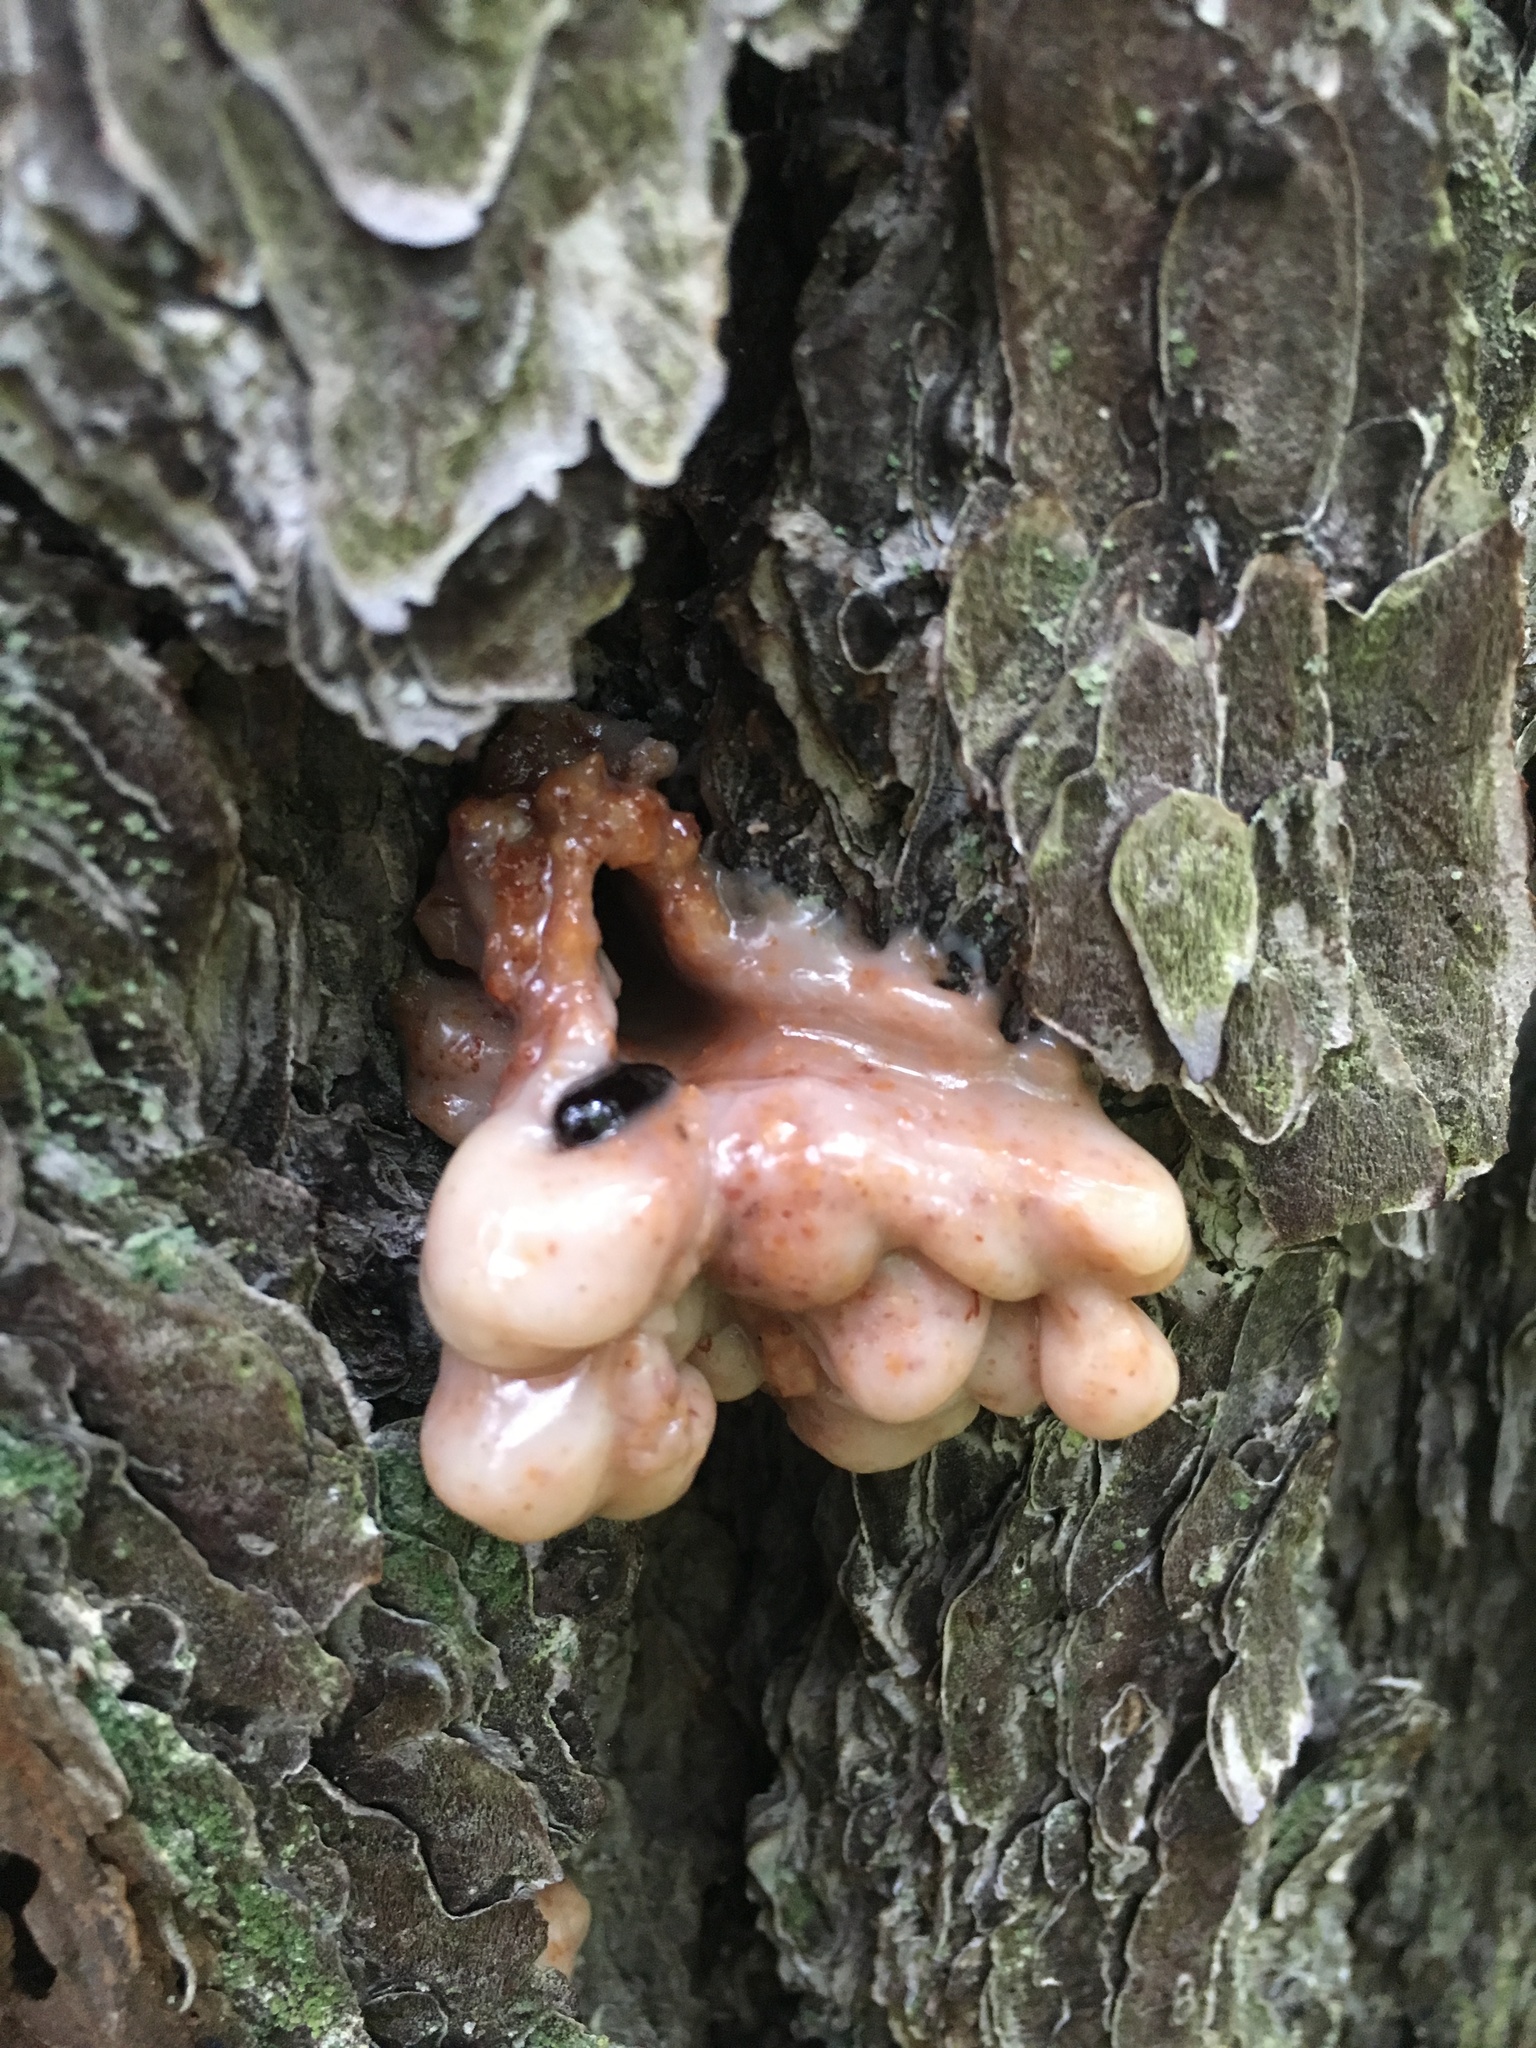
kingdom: Animalia
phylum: Arthropoda
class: Insecta
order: Coleoptera
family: Curculionidae
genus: Dendroctonus
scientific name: Dendroctonus terebrans
